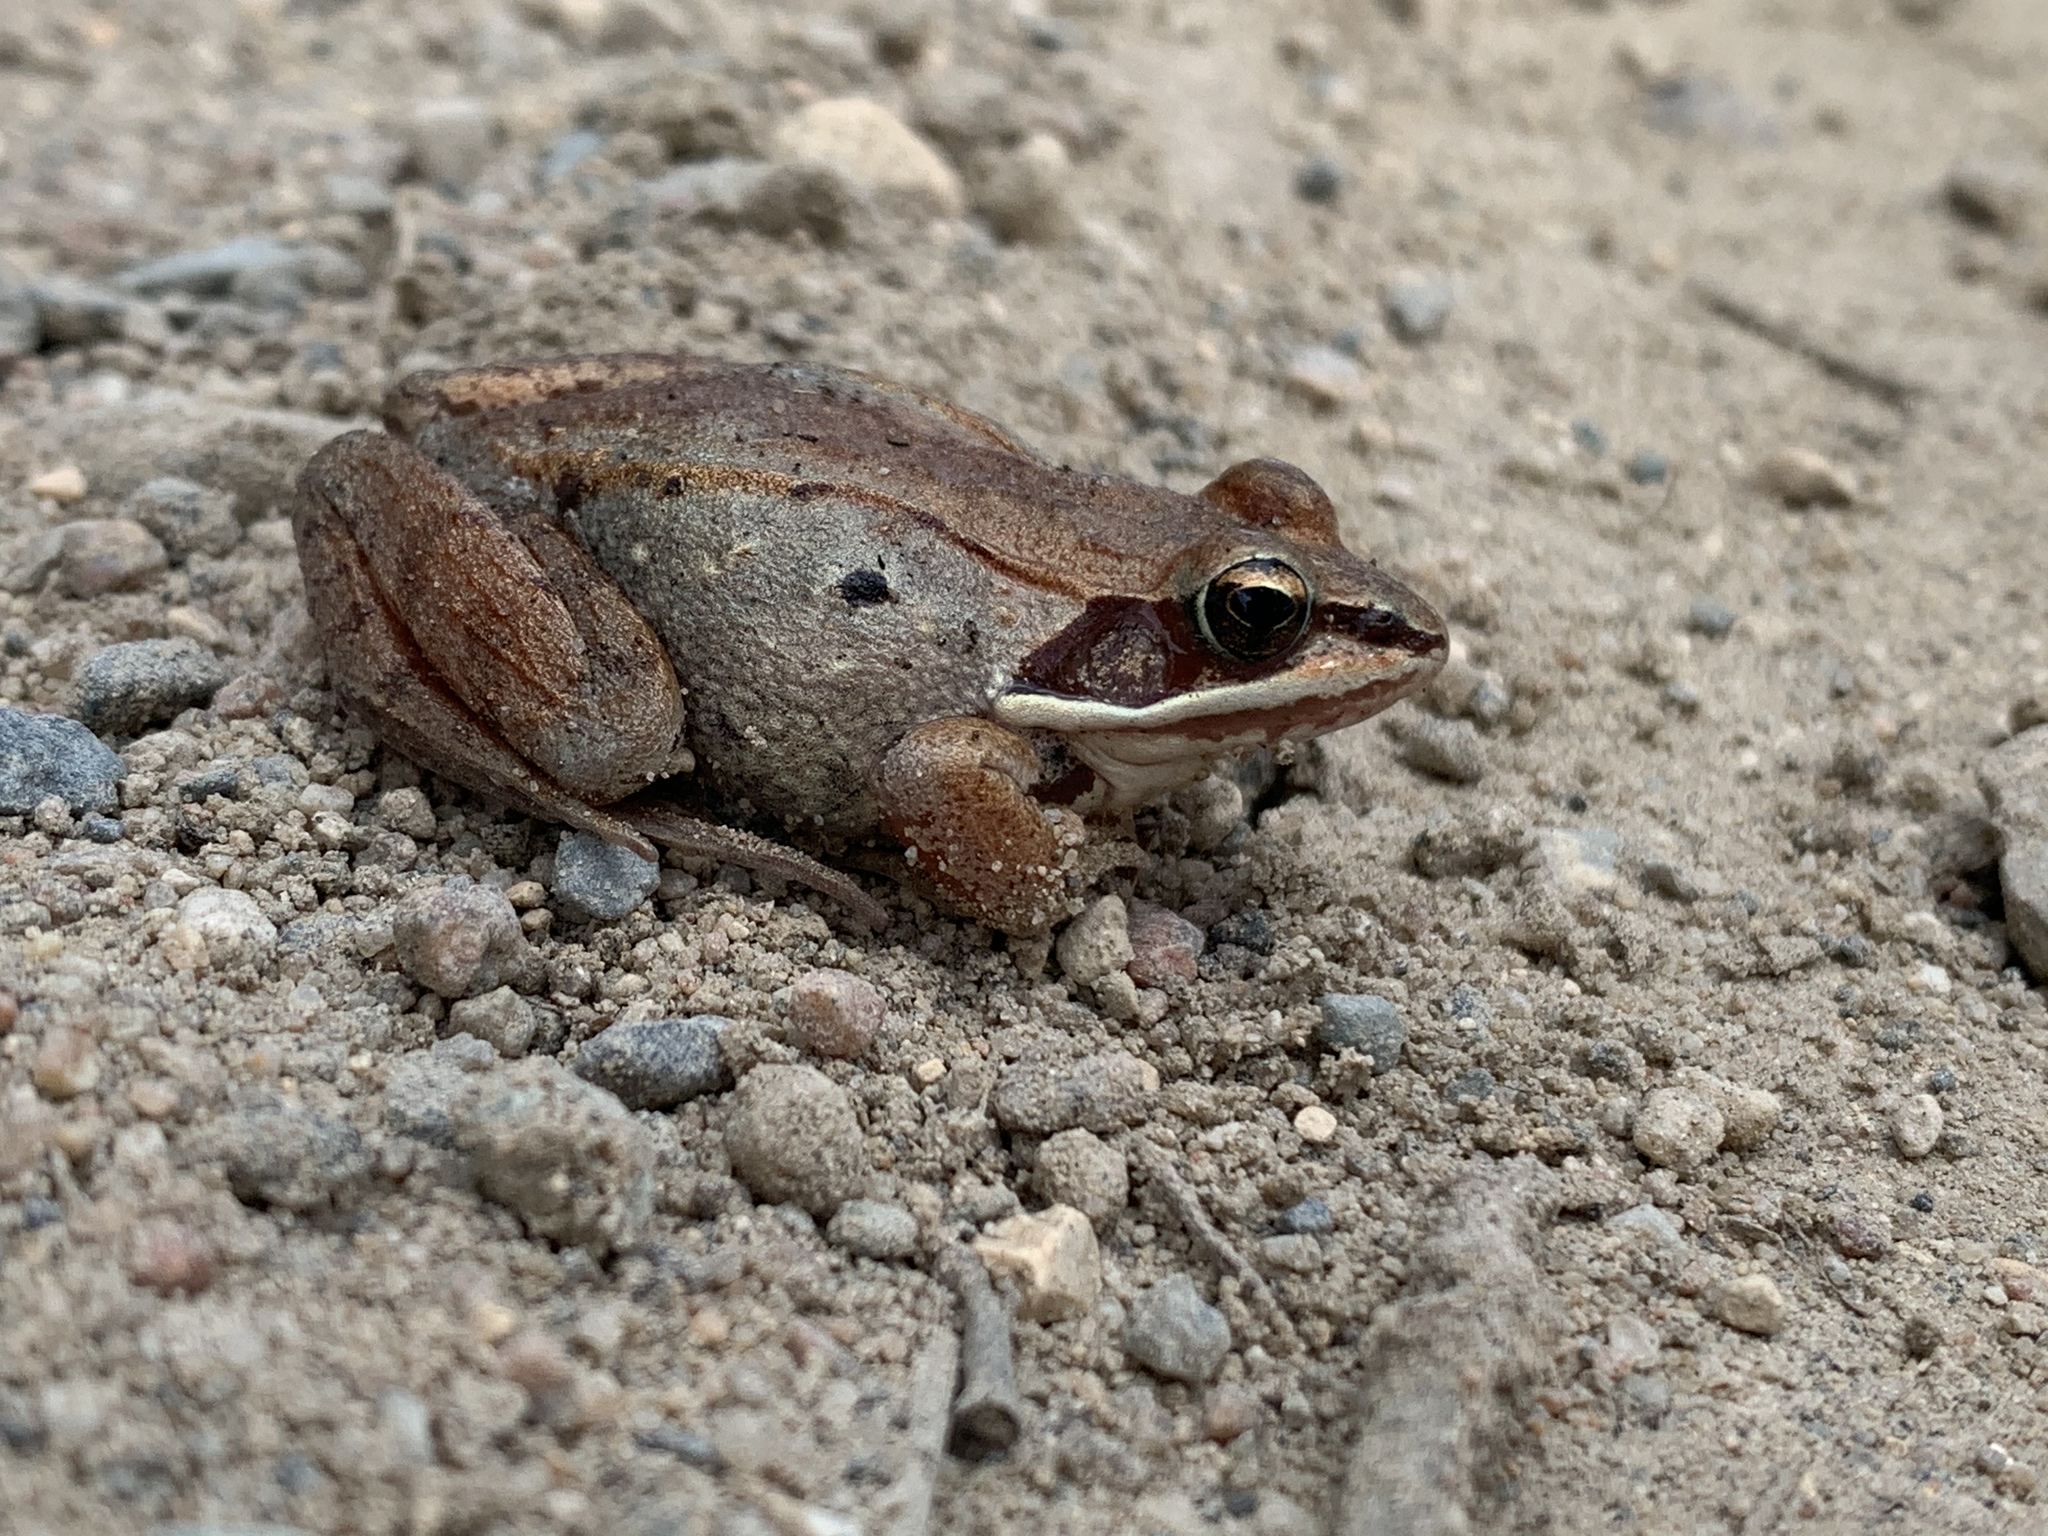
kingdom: Animalia
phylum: Chordata
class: Amphibia
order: Anura
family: Ranidae
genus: Lithobates
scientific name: Lithobates sylvaticus
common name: Wood frog
